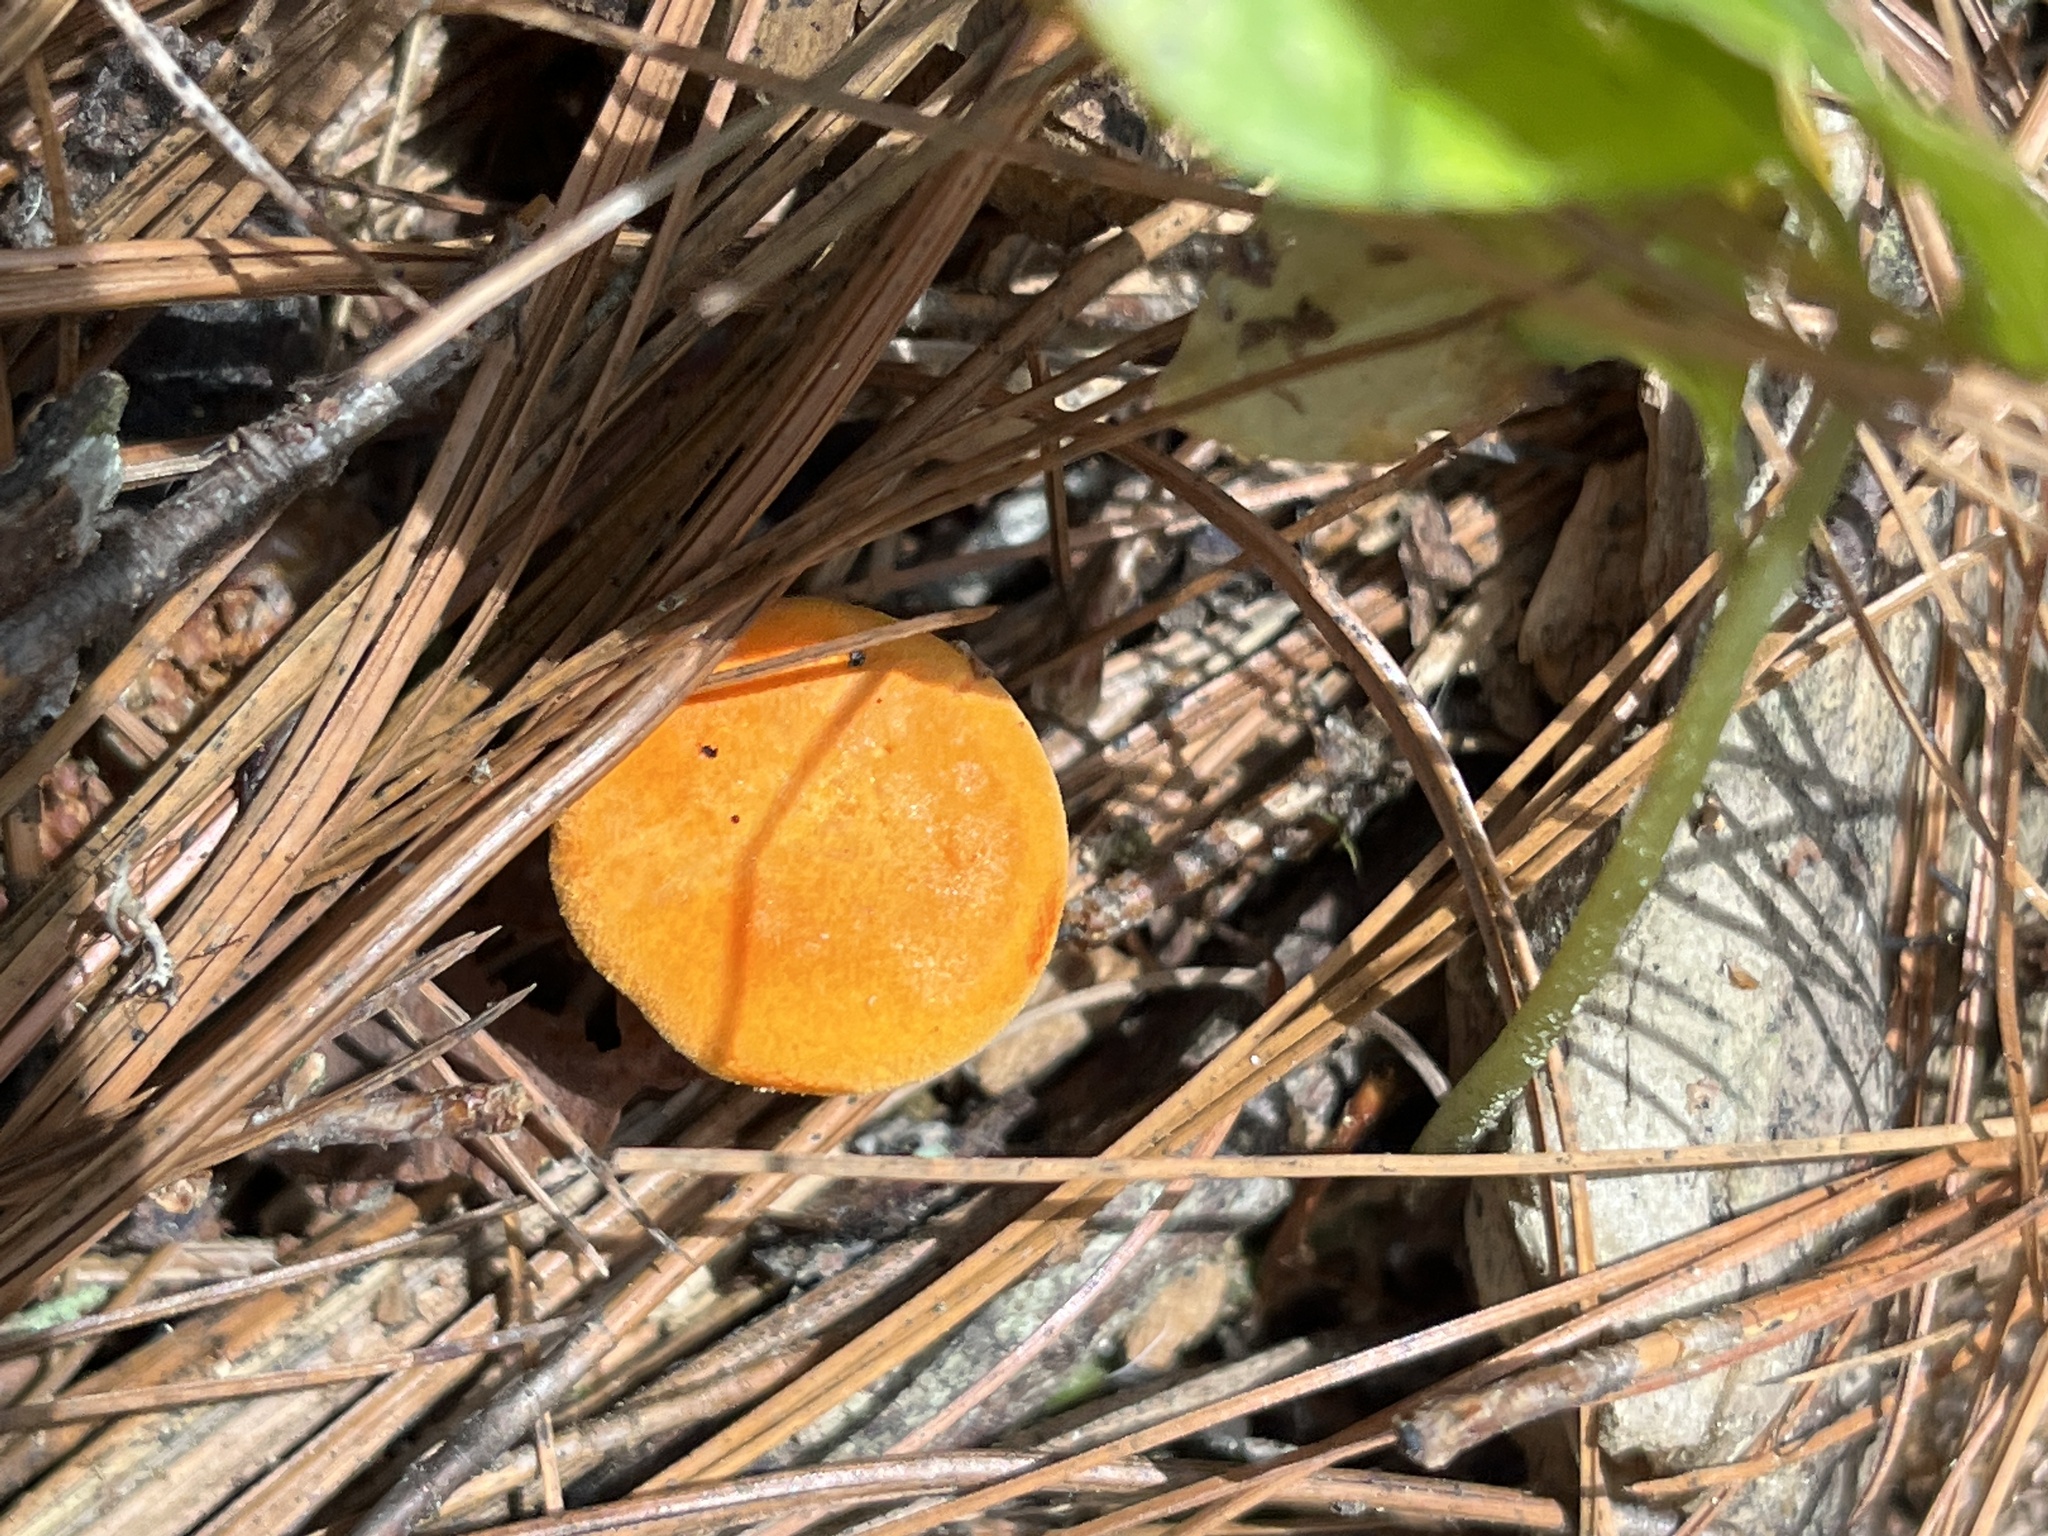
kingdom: Fungi
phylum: Basidiomycota
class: Agaricomycetes
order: Boletales
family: Hygrophoropsidaceae
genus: Hygrophoropsis
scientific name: Hygrophoropsis aurantiaca
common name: False chanterelle
